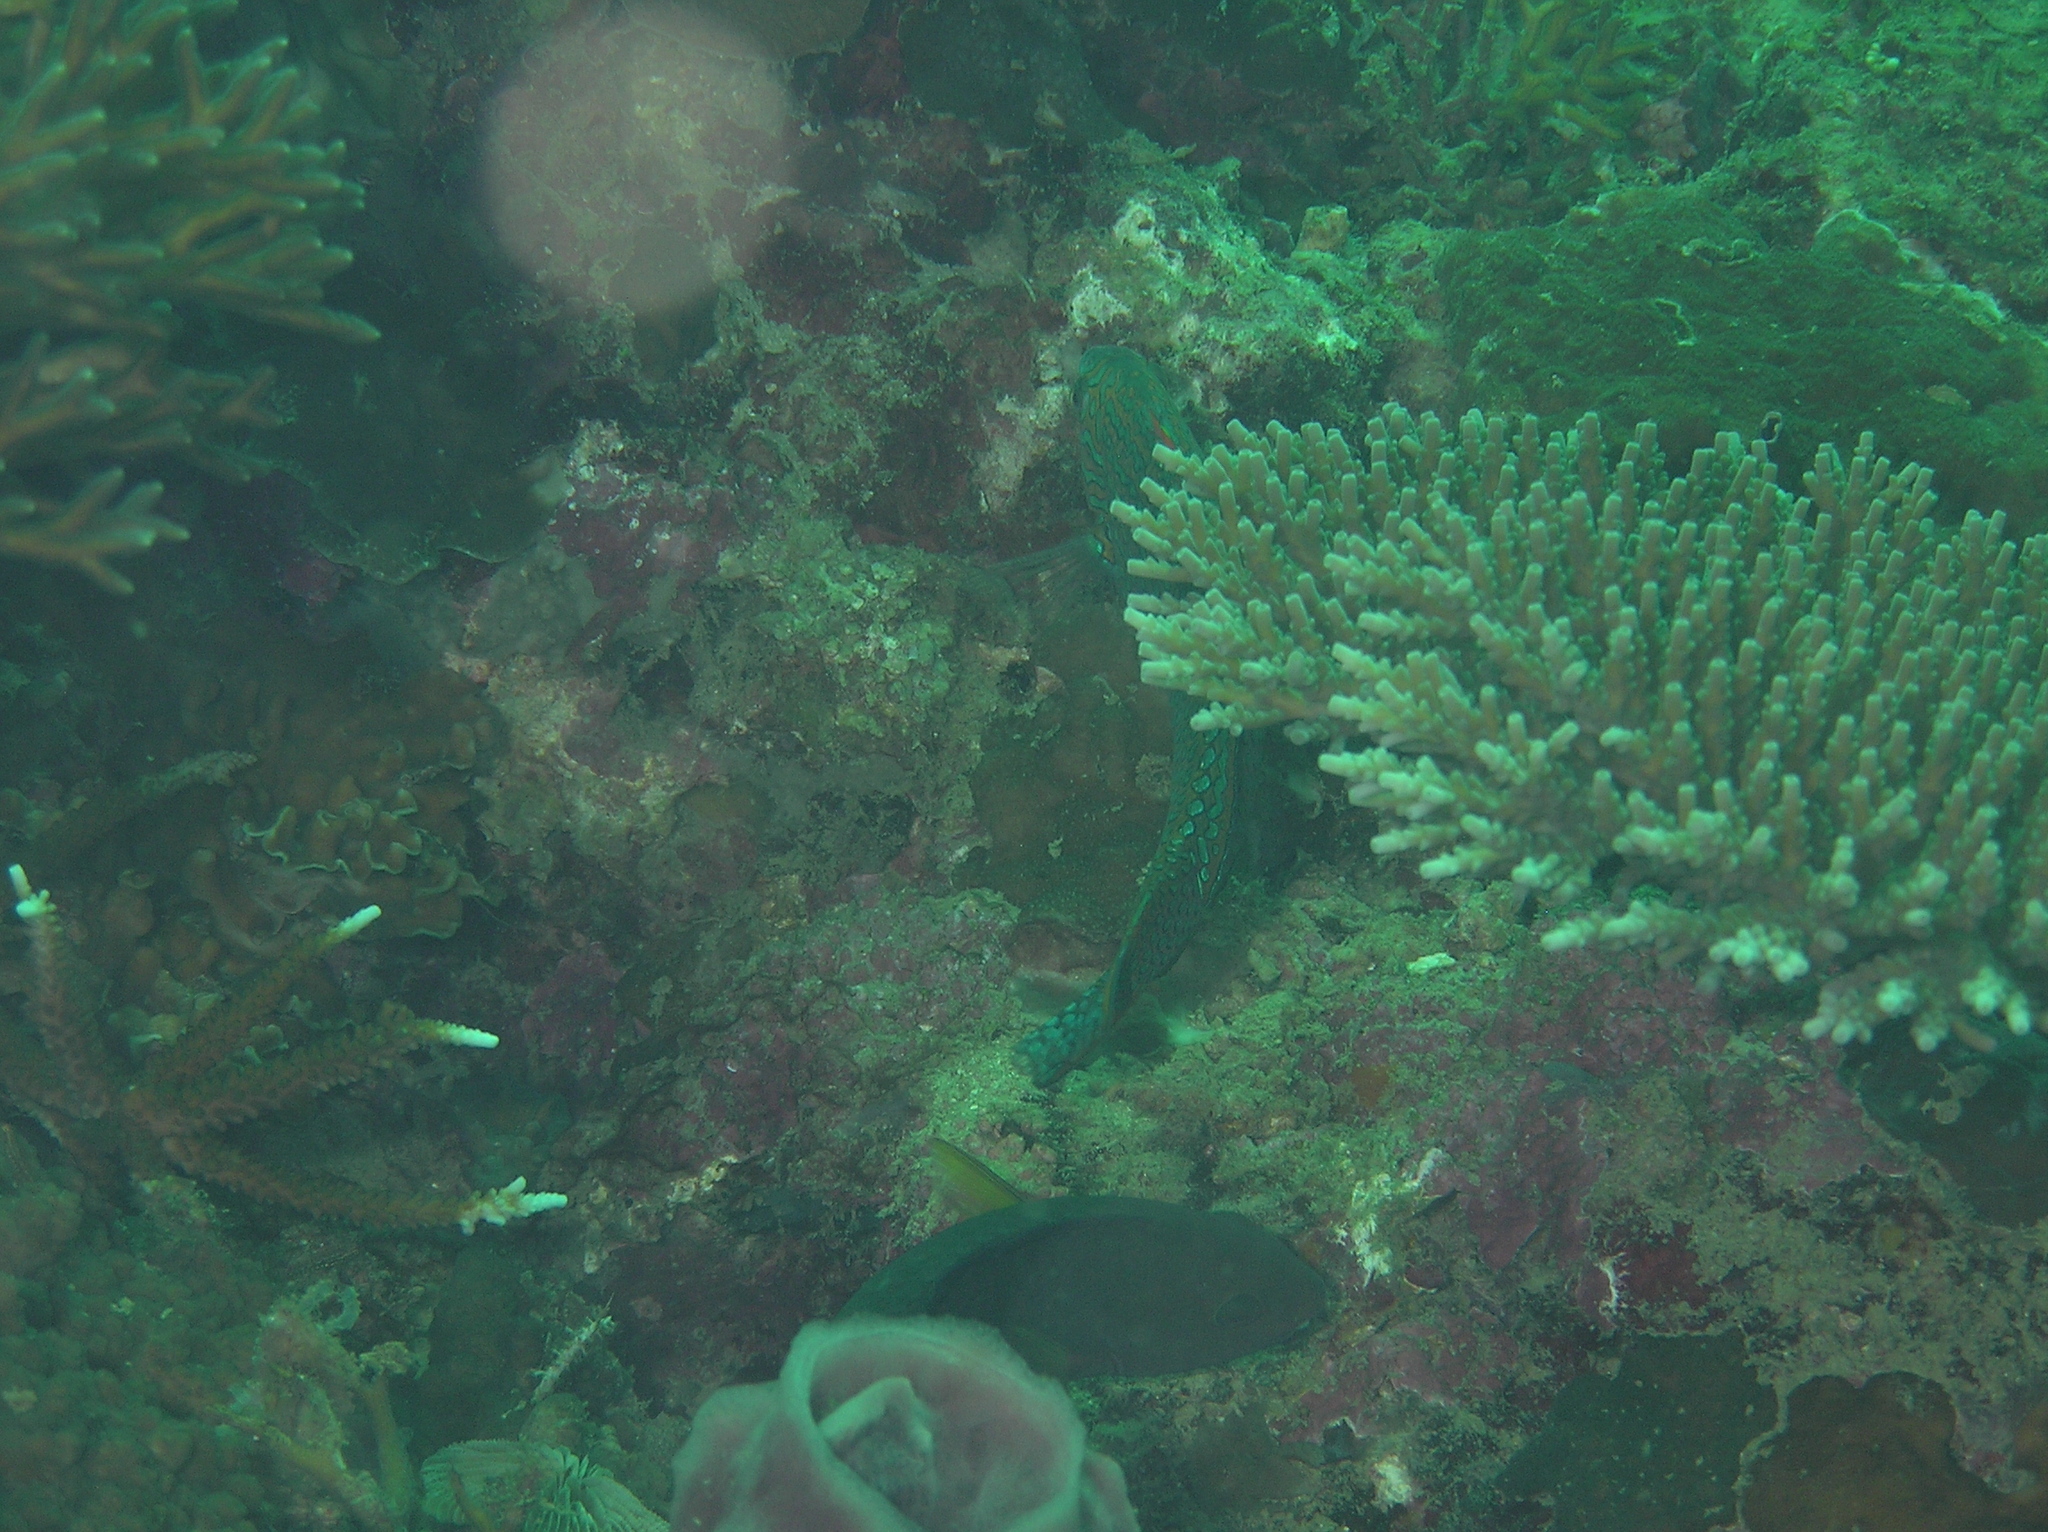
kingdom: Animalia
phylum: Chordata
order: Perciformes
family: Labridae
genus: Macropharyngodon
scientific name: Macropharyngodon meleagris
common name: Leopard wrasse
